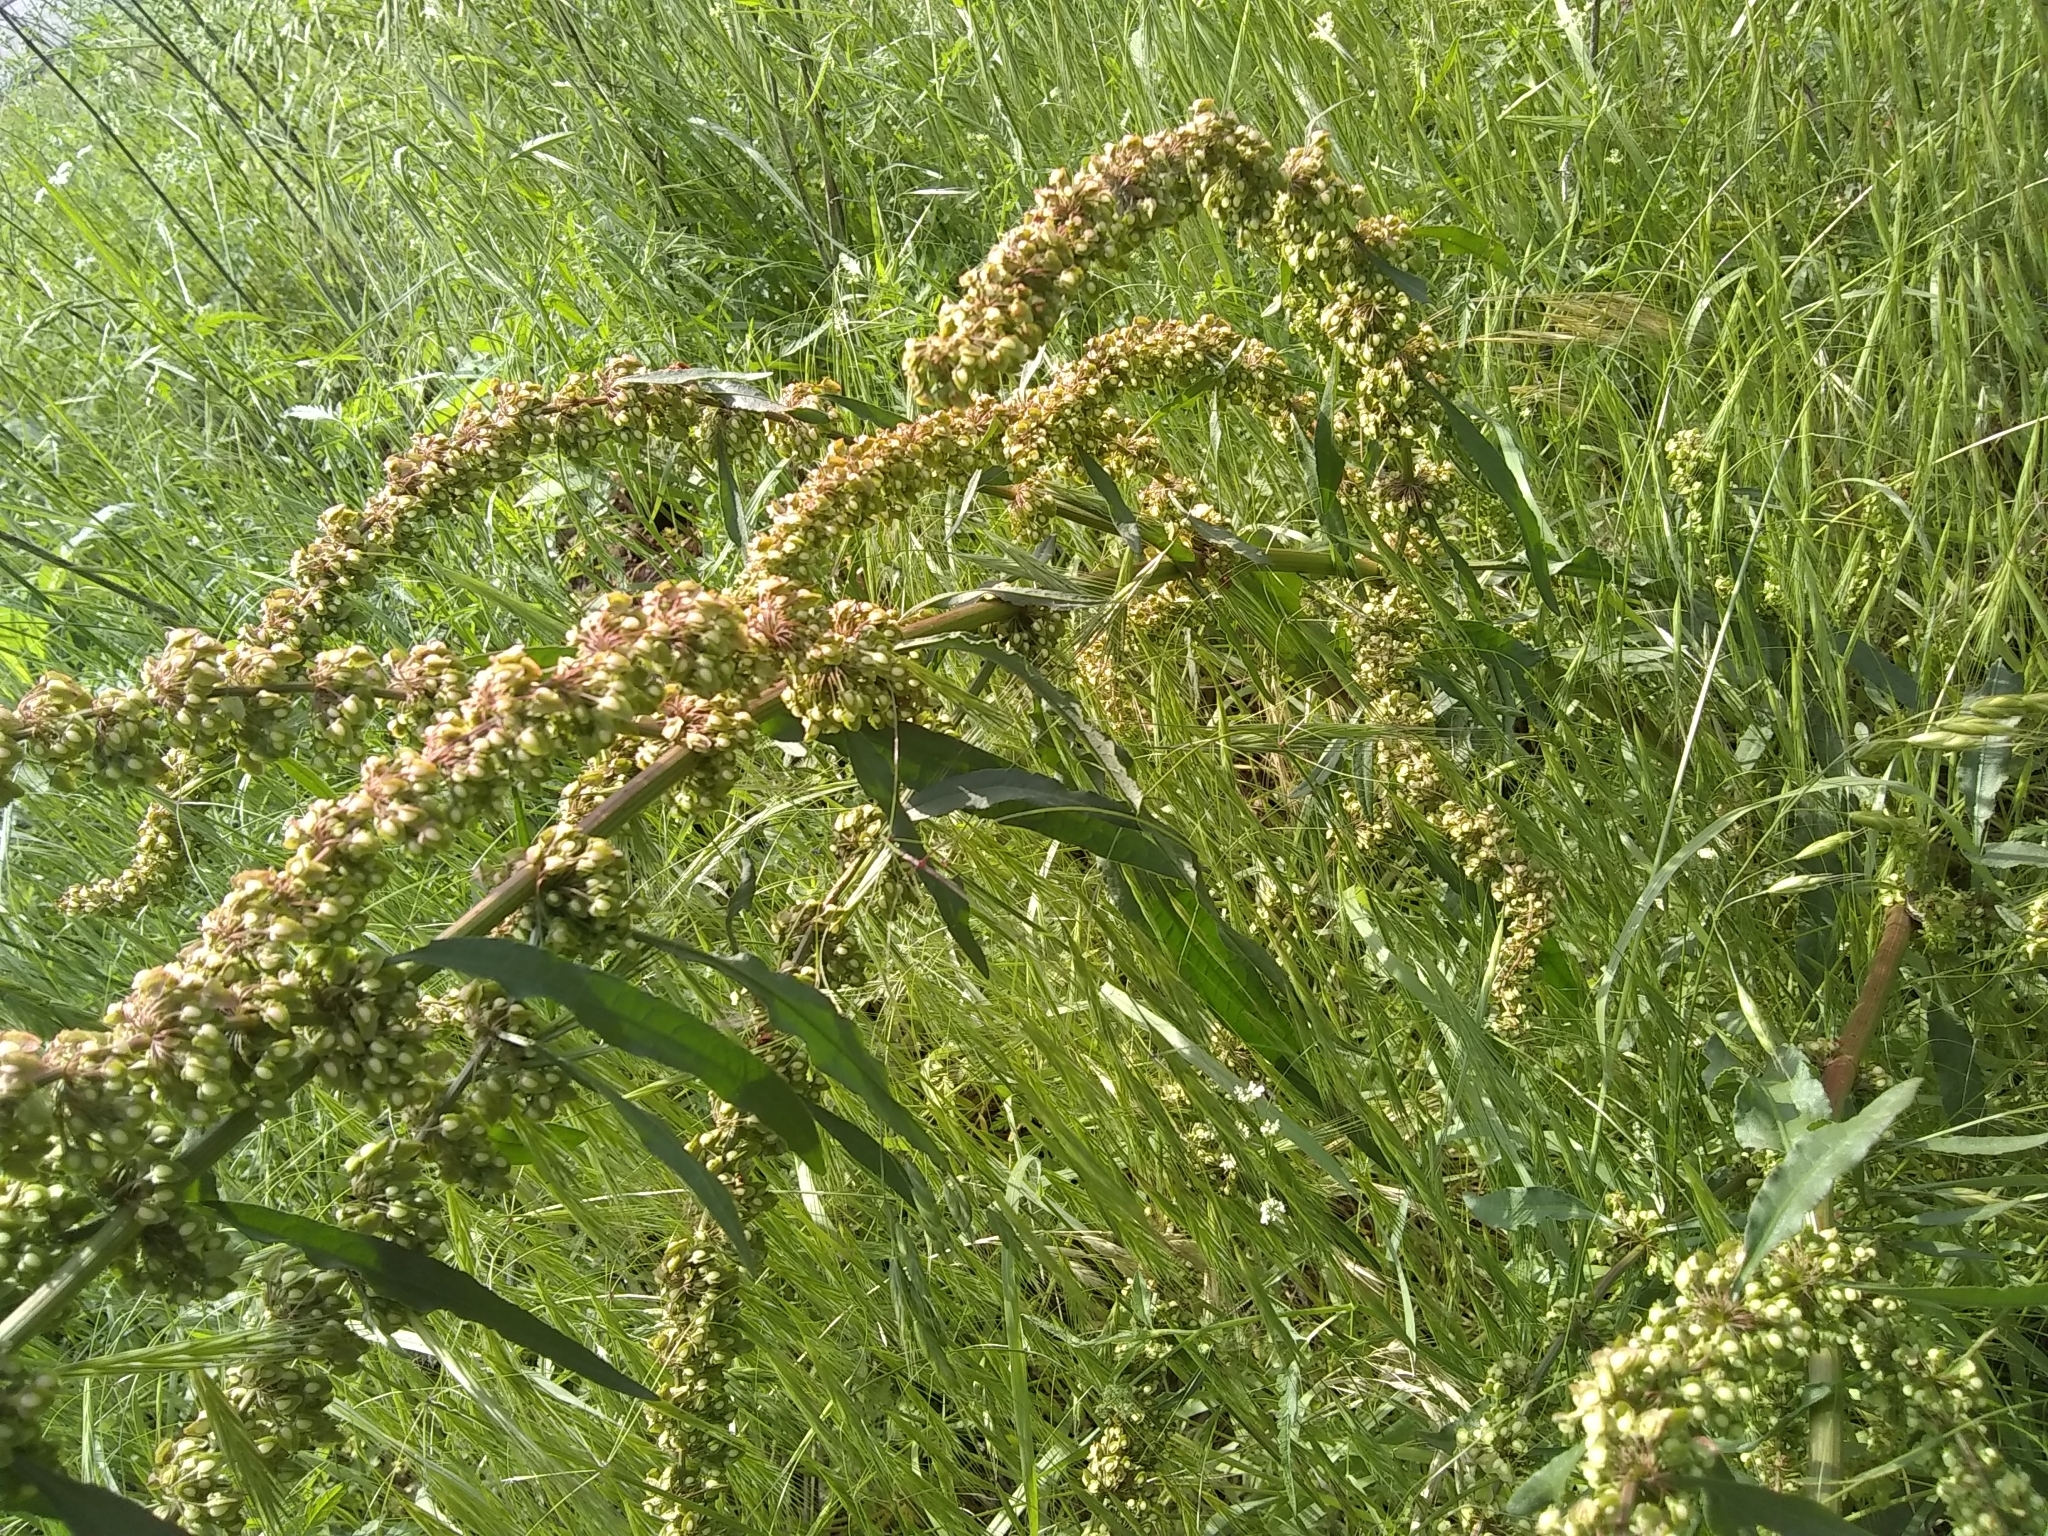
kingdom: Plantae
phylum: Tracheophyta
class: Magnoliopsida
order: Caryophyllales
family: Polygonaceae
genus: Rumex
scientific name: Rumex crispus
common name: Curled dock
